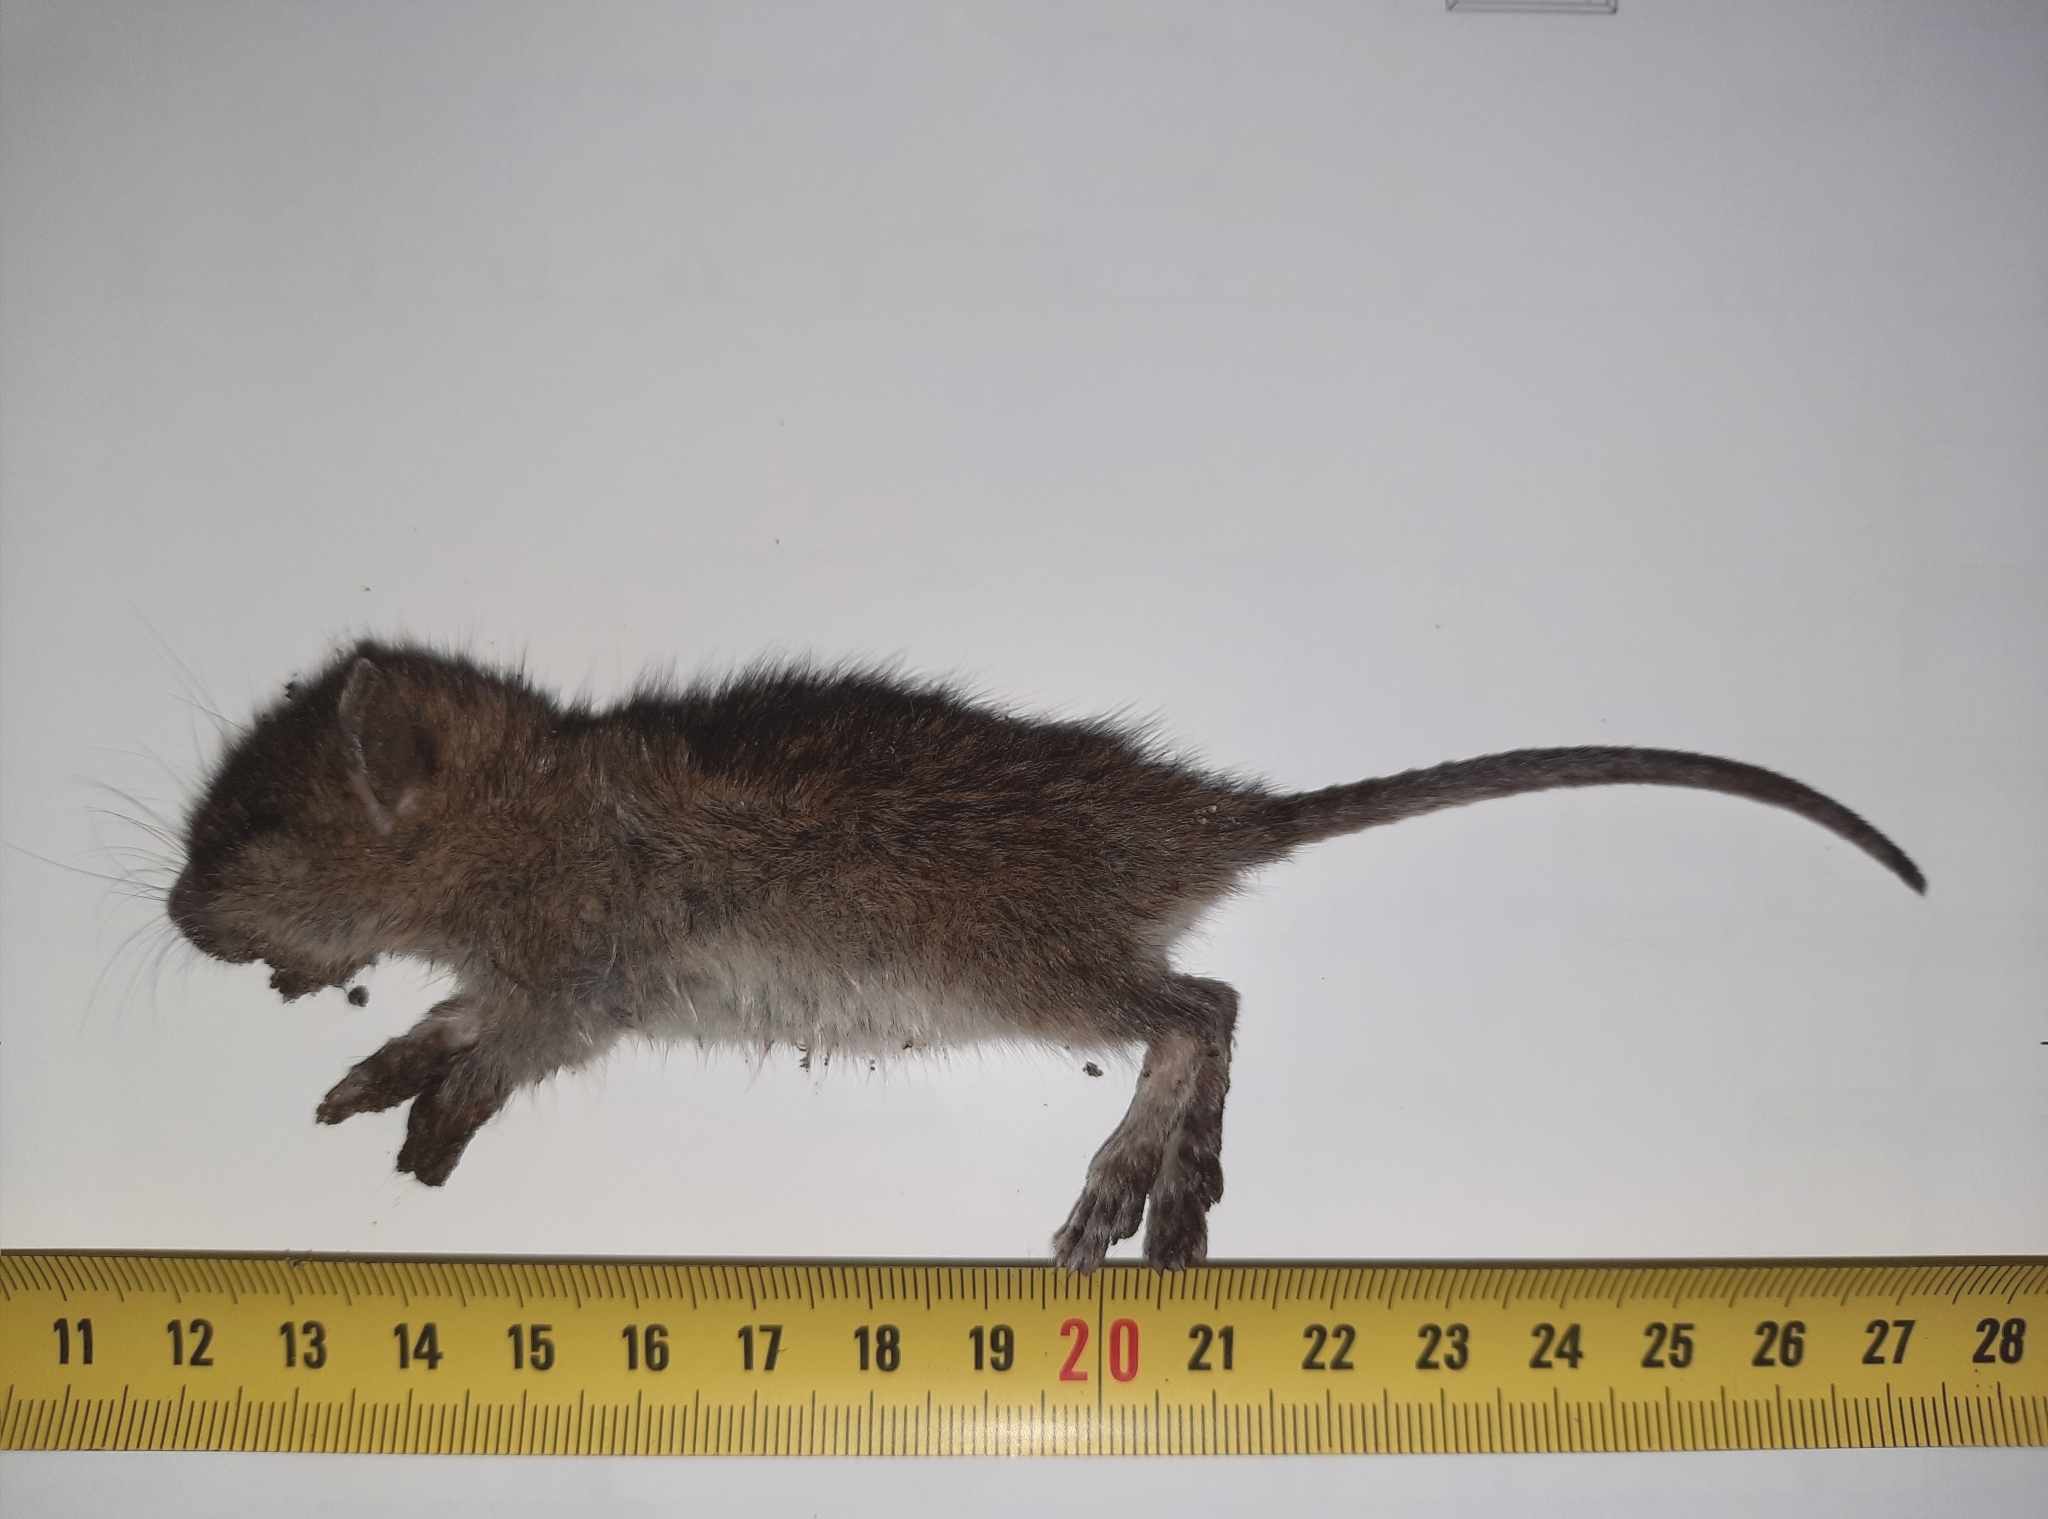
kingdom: Animalia
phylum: Chordata
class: Mammalia
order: Rodentia
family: Muridae
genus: Rattus
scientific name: Rattus norvegicus
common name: Brown rat
